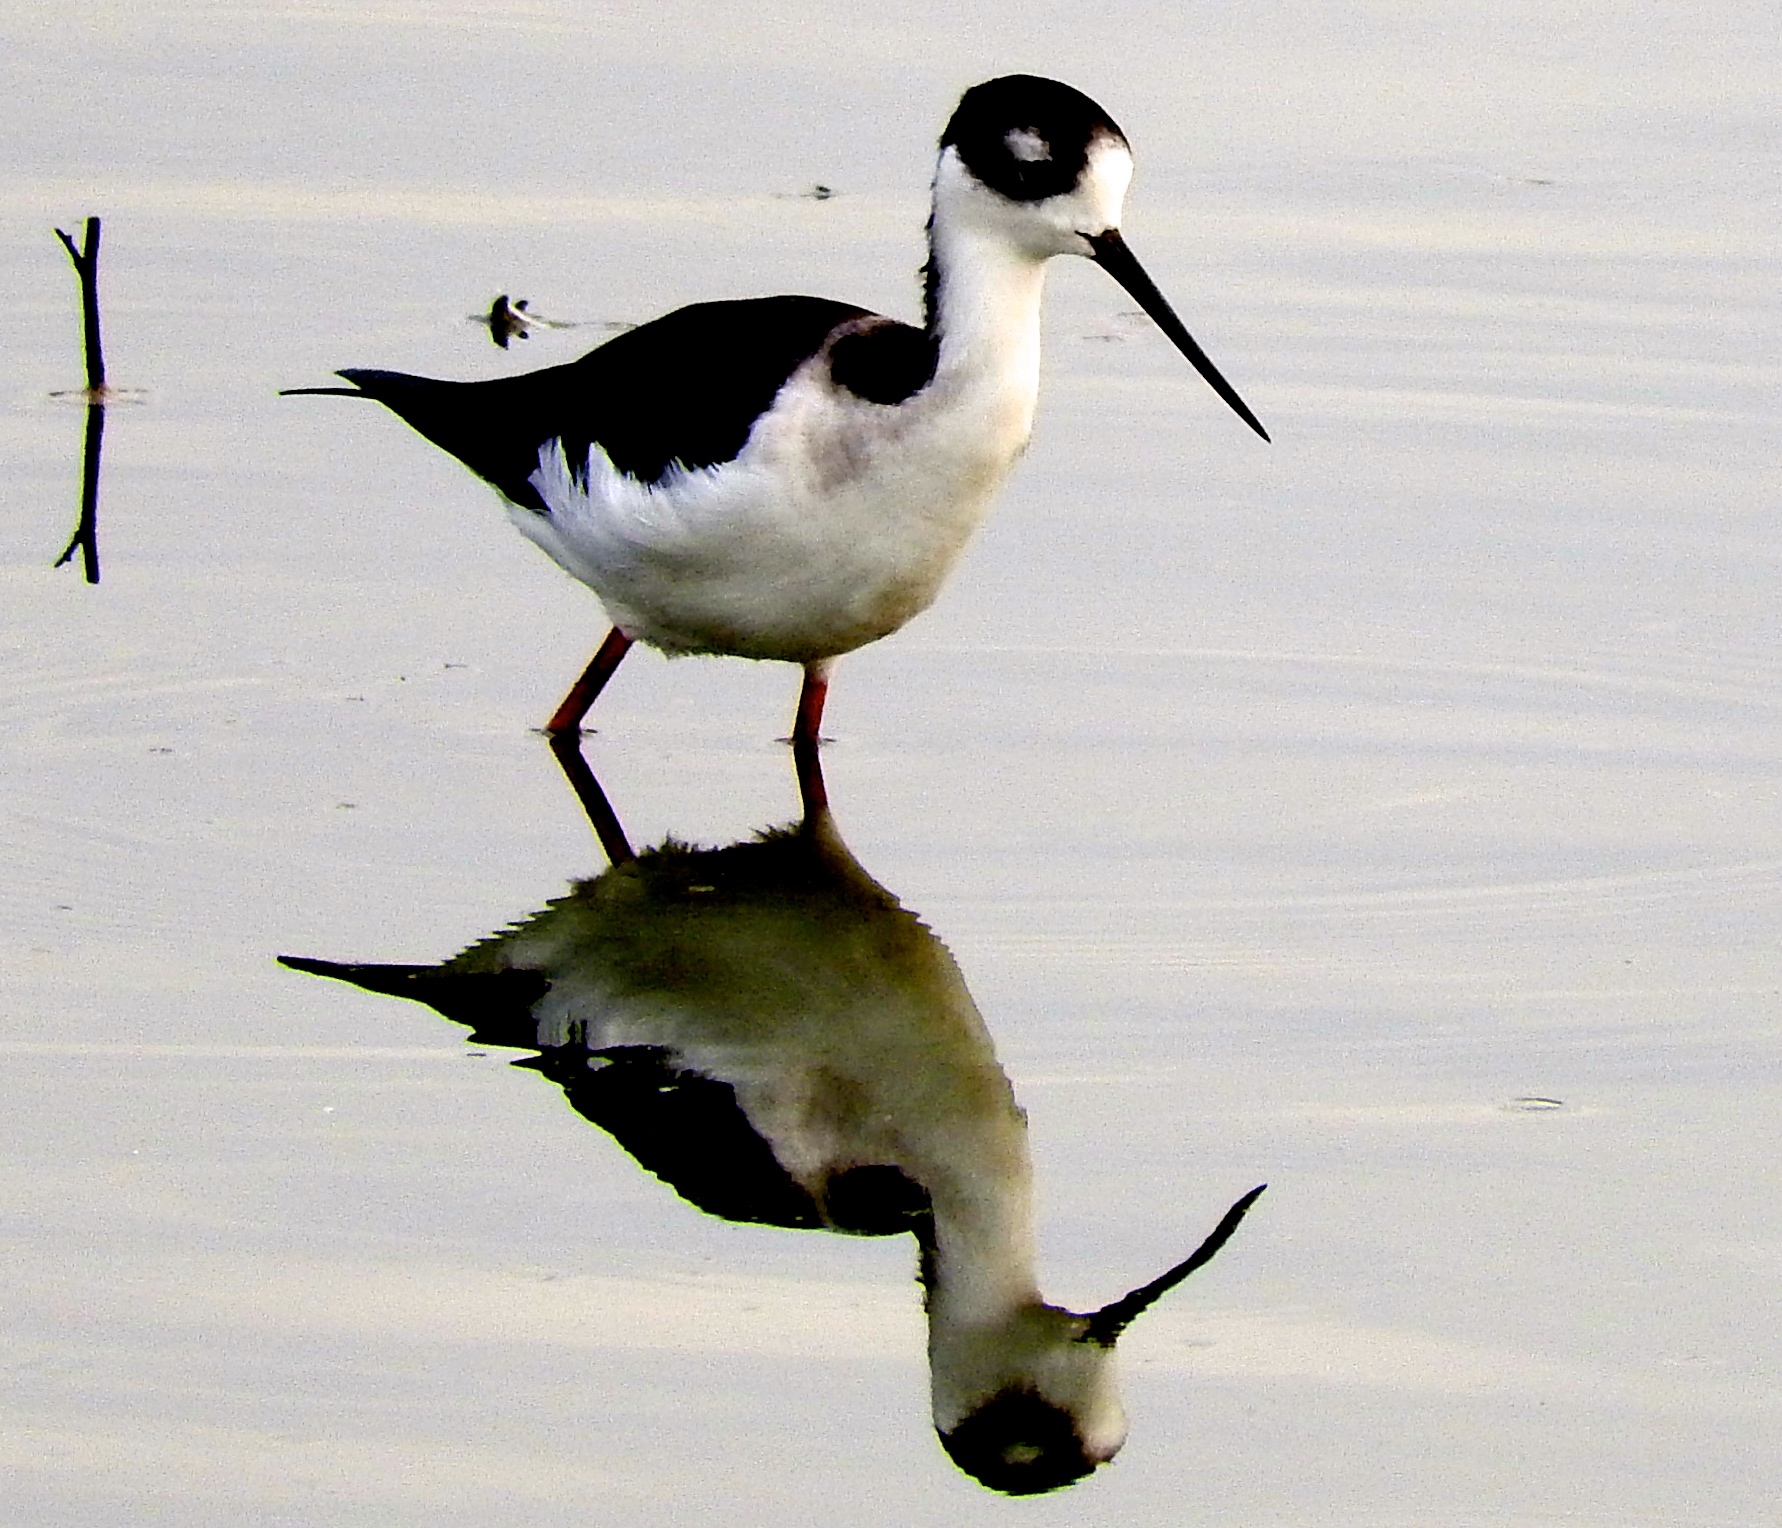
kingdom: Animalia
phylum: Chordata
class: Aves
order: Charadriiformes
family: Recurvirostridae
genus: Himantopus
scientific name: Himantopus mexicanus
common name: Black-necked stilt
